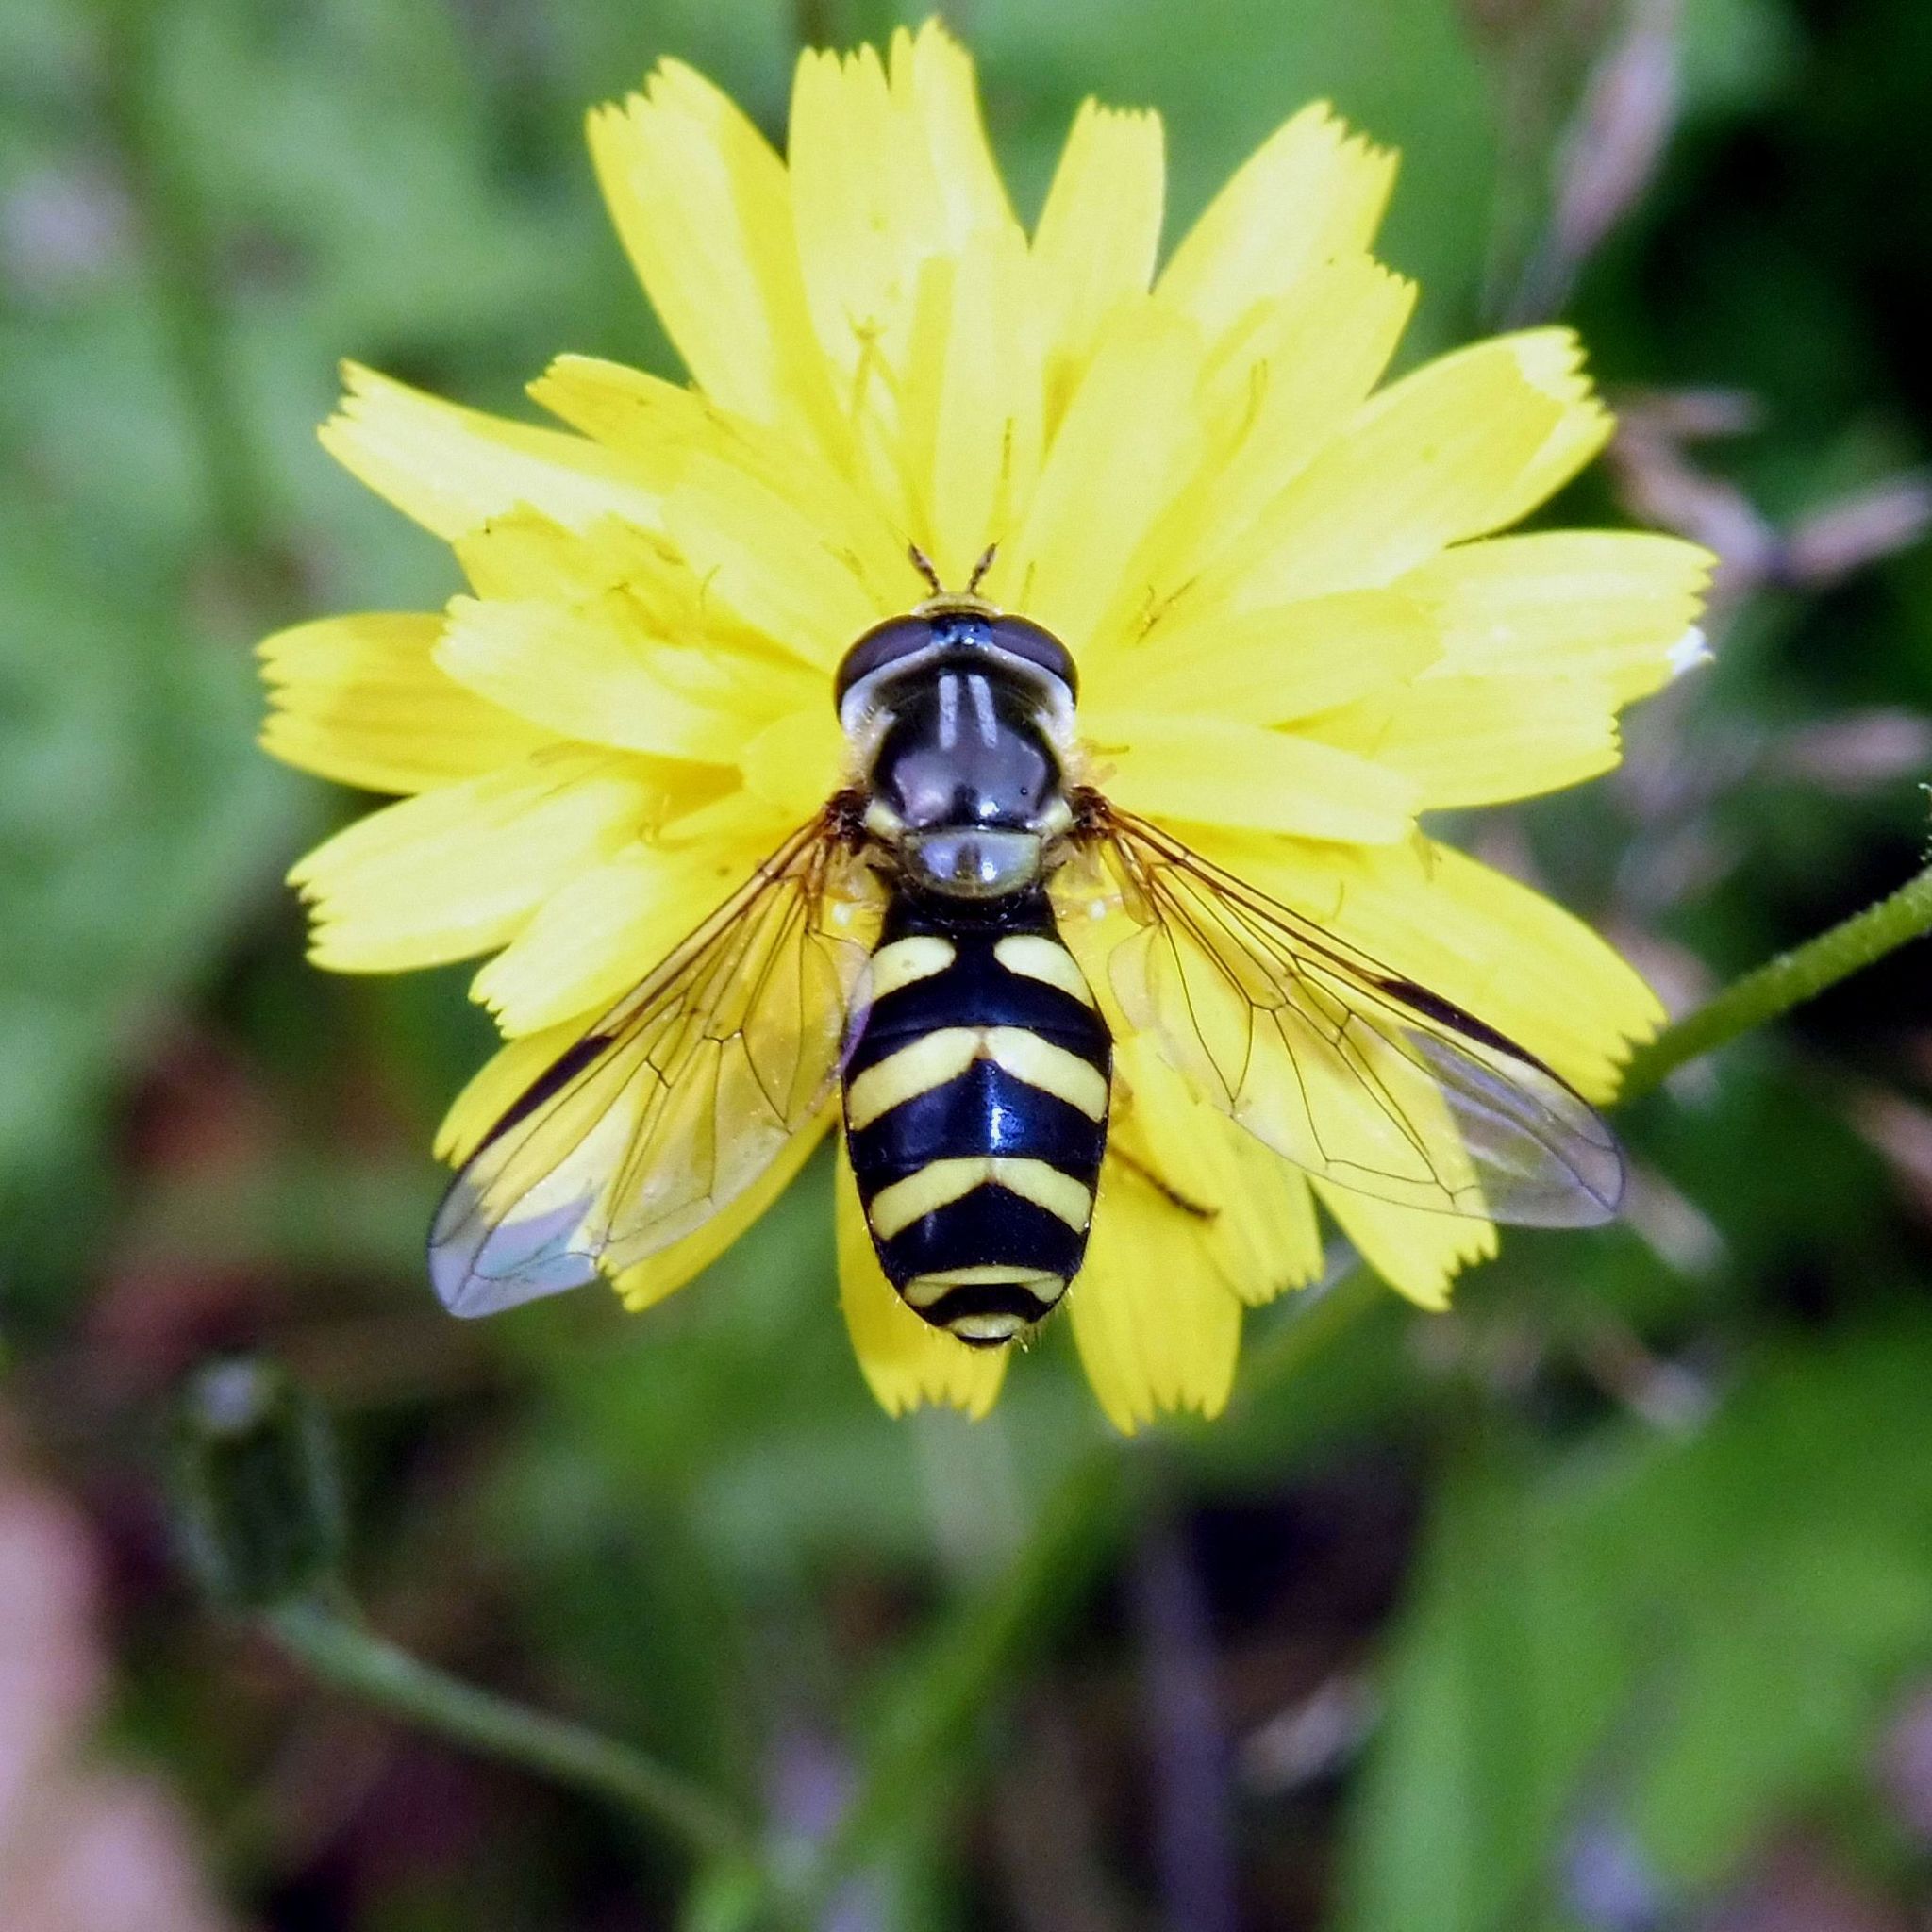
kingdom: Animalia
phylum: Arthropoda
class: Insecta
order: Diptera
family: Syrphidae
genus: Dasysyrphus
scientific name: Dasysyrphus albostriatus
